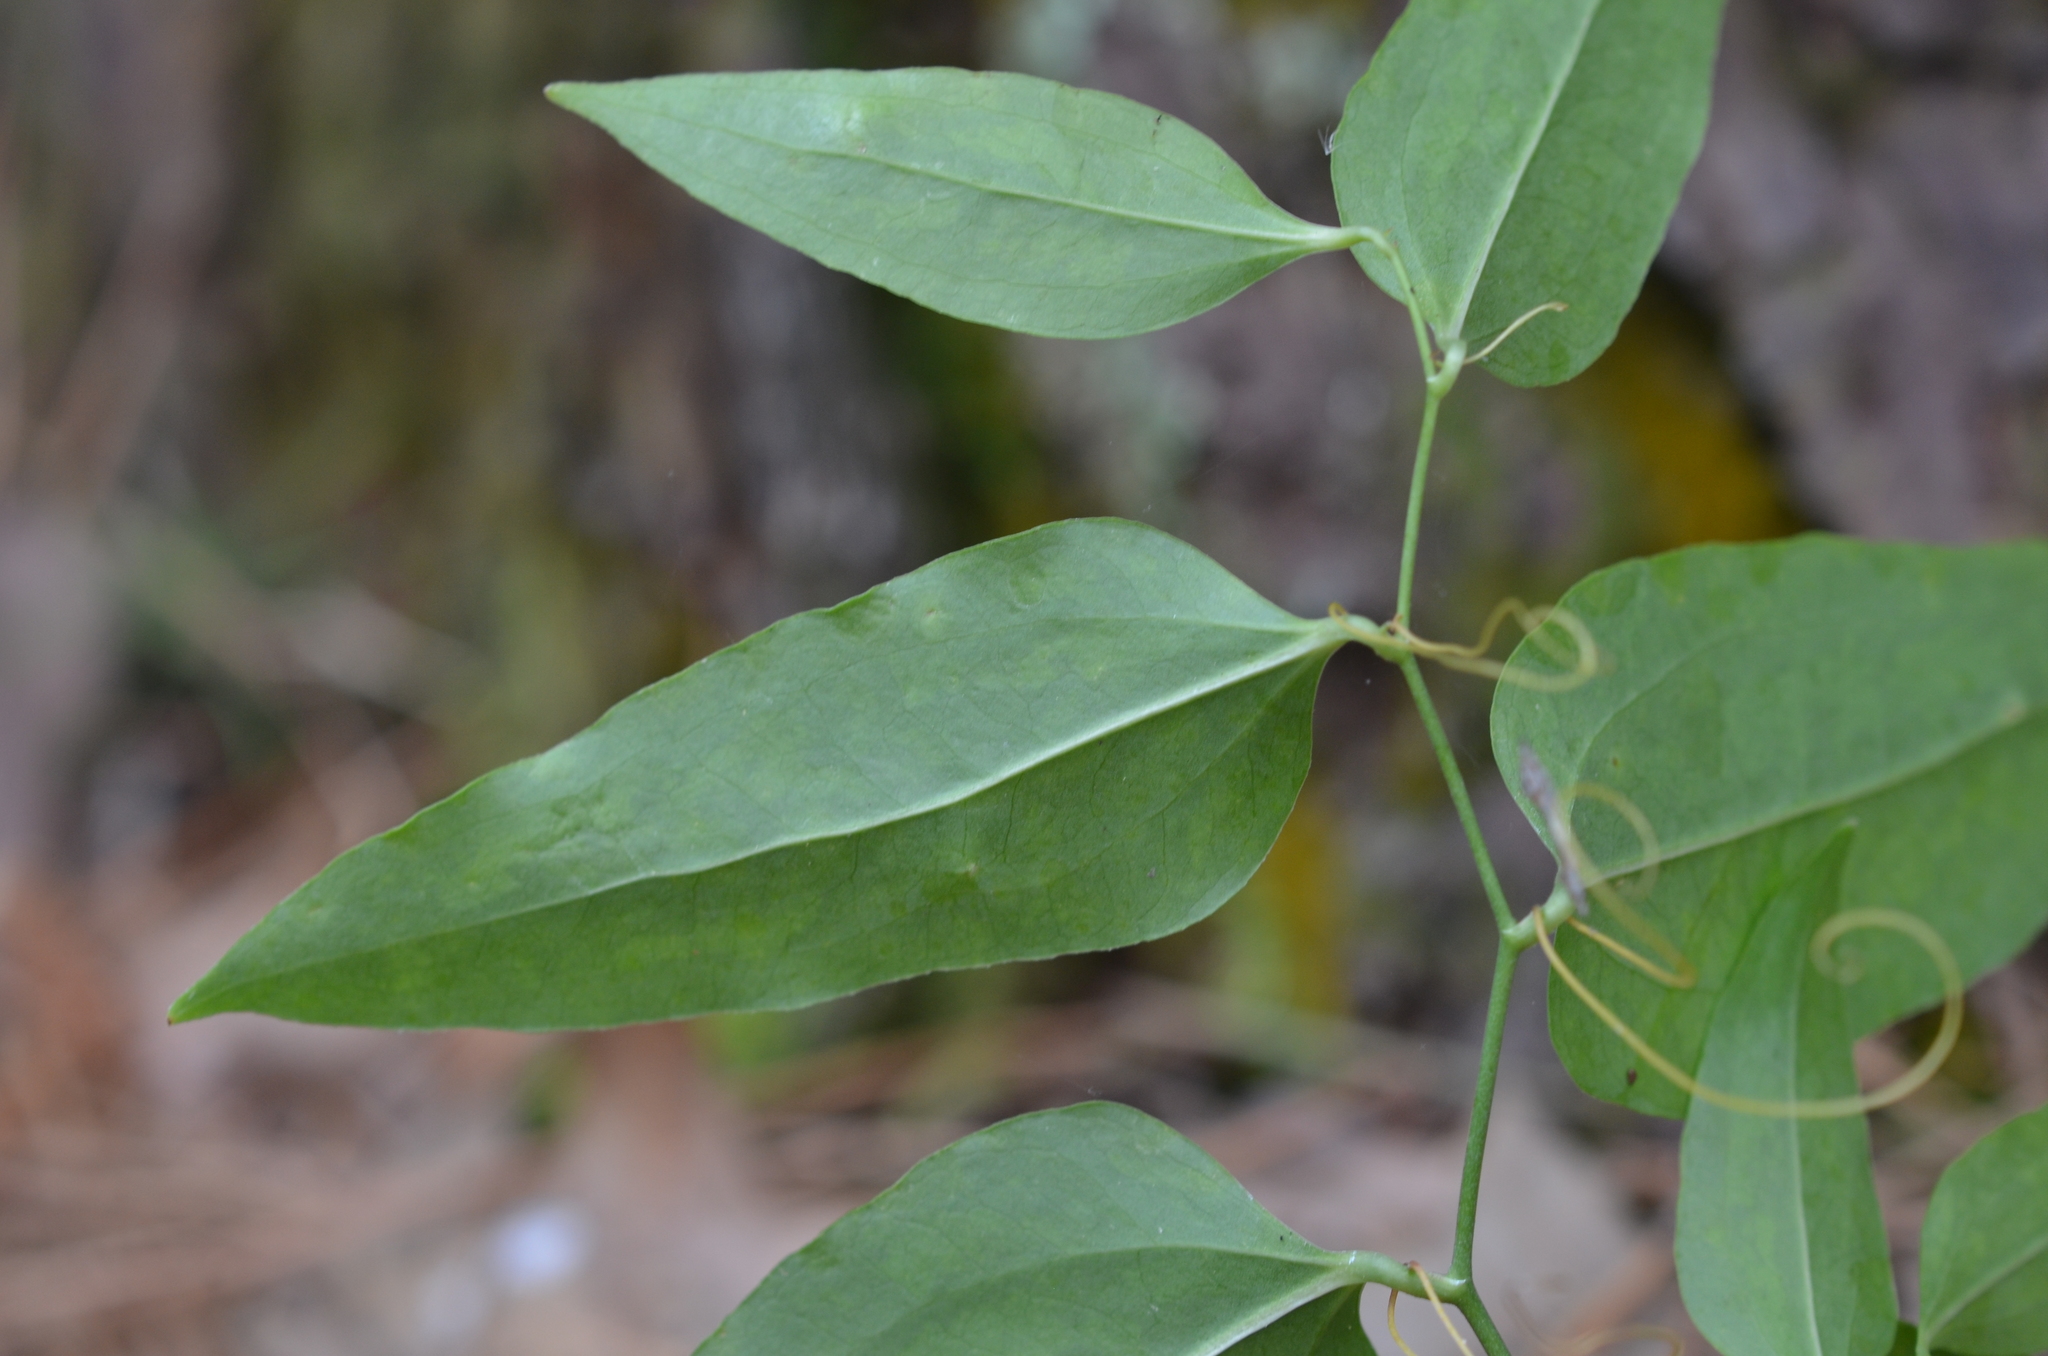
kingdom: Plantae
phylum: Tracheophyta
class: Liliopsida
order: Liliales
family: Smilacaceae
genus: Smilax
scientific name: Smilax maritima
